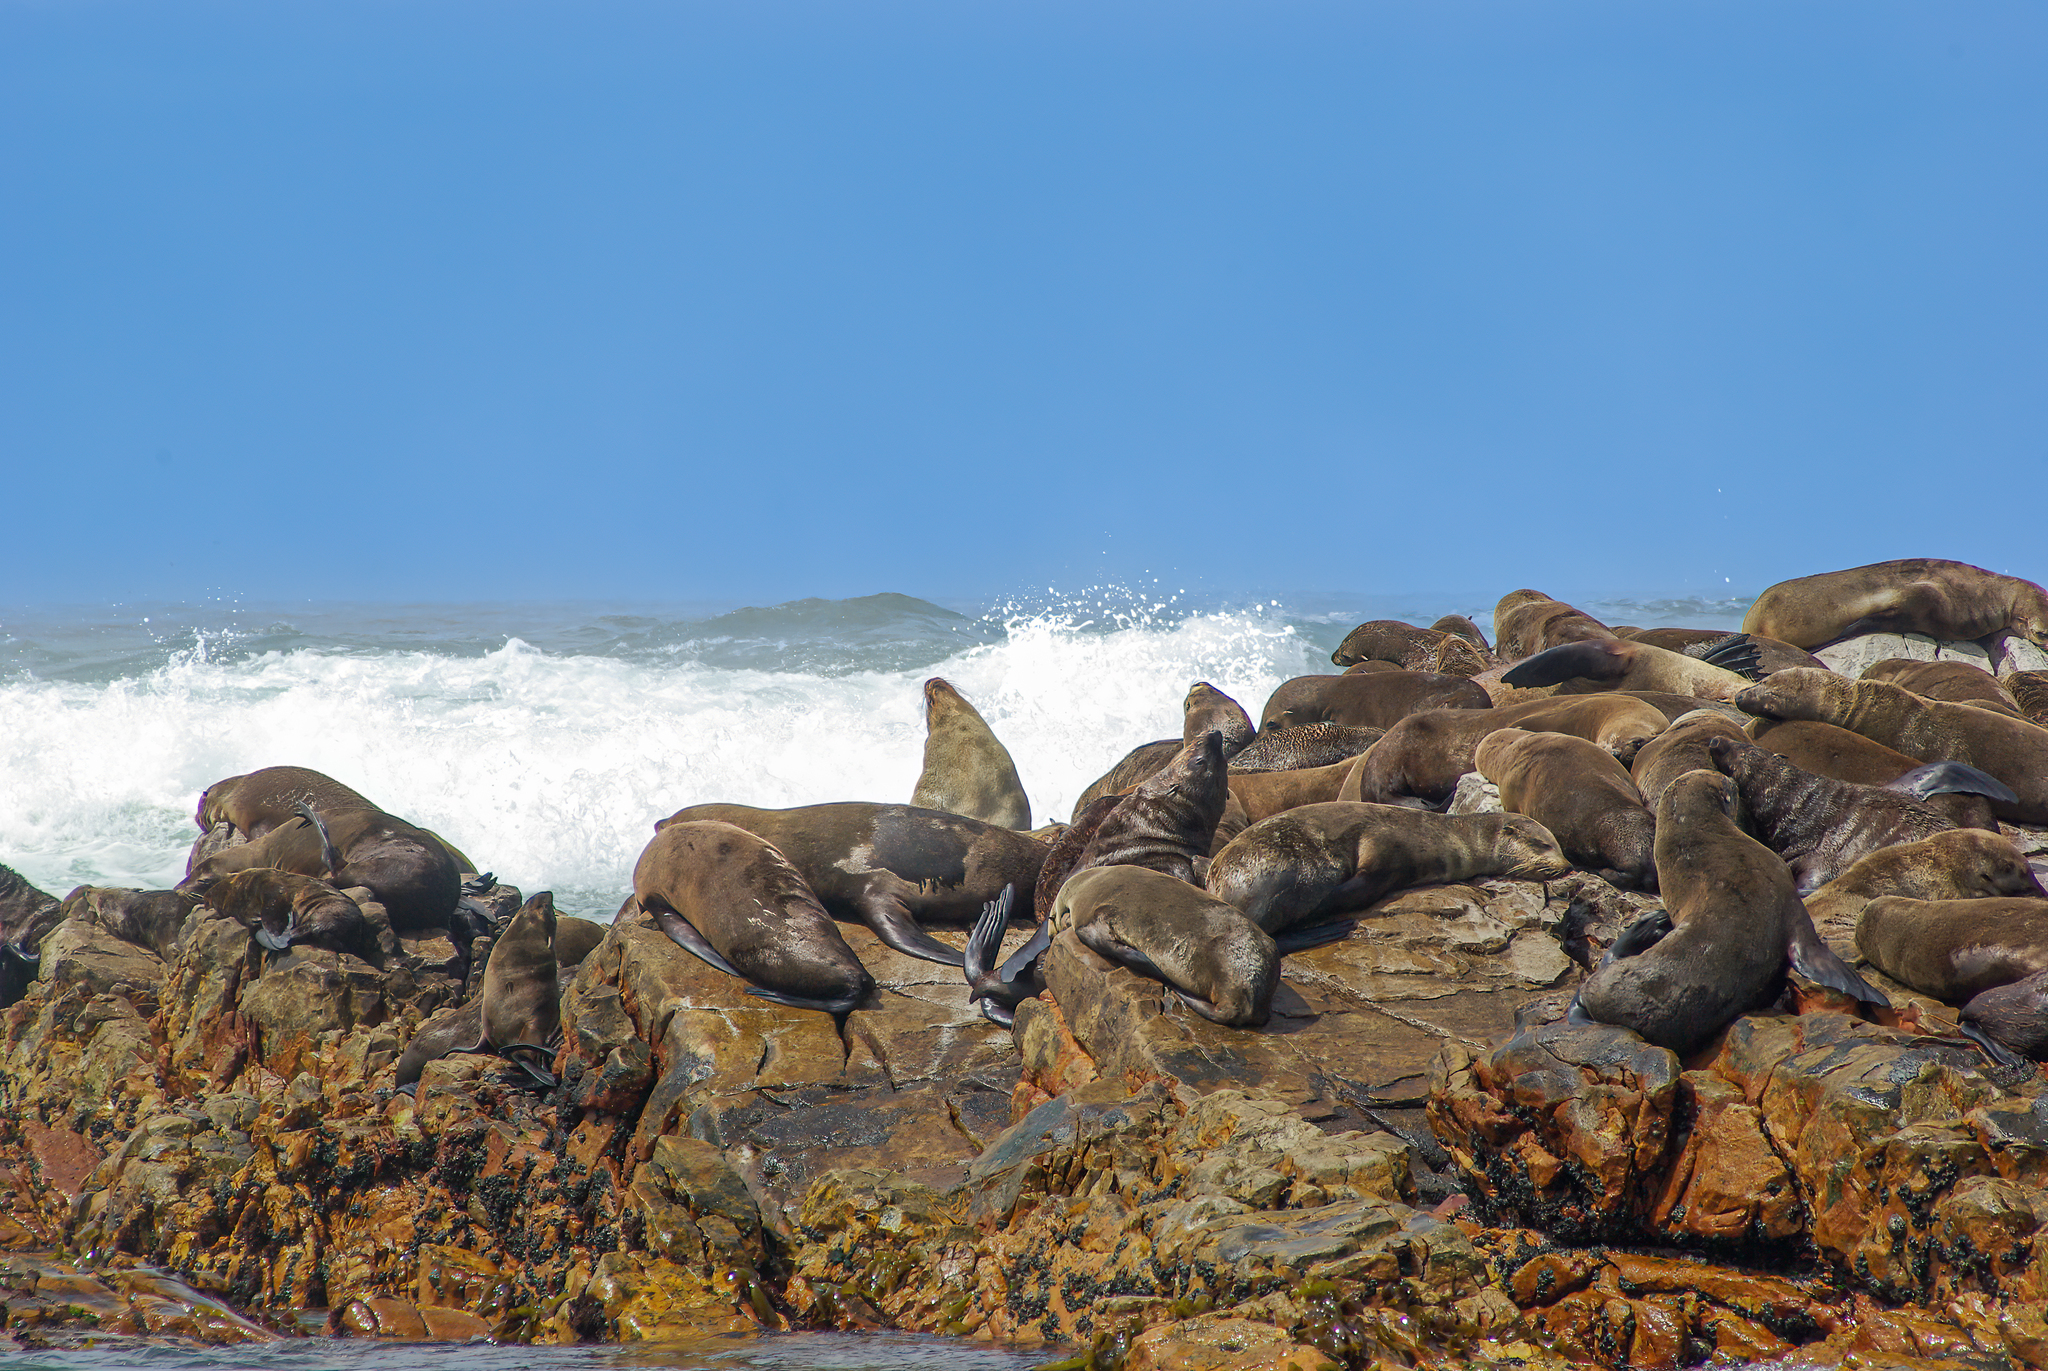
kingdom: Animalia
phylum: Chordata
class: Mammalia
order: Carnivora
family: Otariidae
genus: Arctocephalus
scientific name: Arctocephalus pusillus
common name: Brown fur seal
